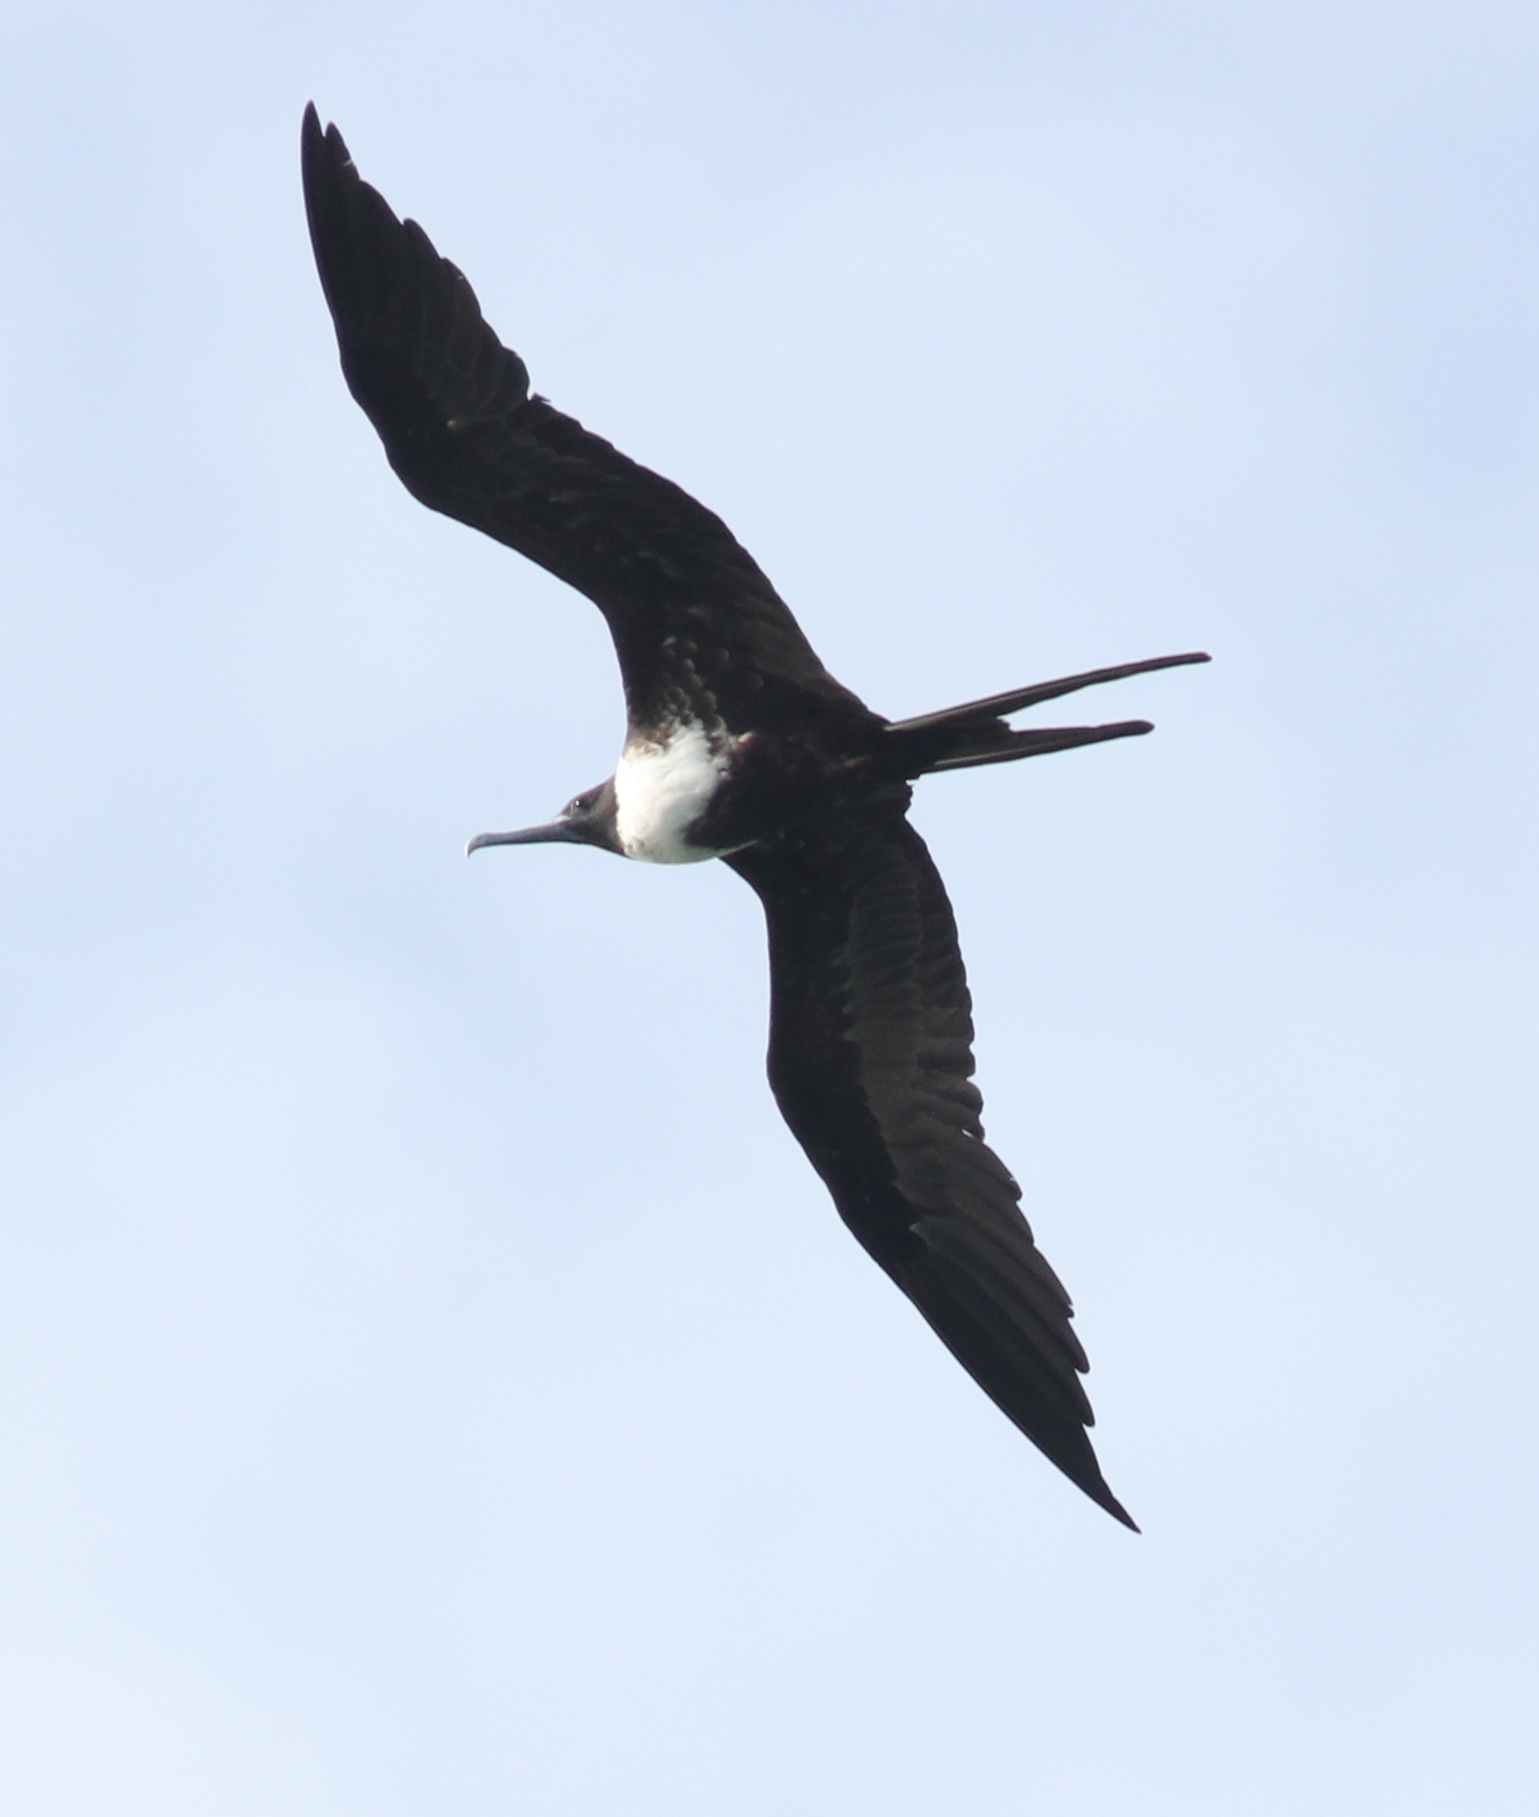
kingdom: Animalia
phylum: Chordata
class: Aves
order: Suliformes
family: Fregatidae
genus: Fregata
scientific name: Fregata magnificens
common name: Magnificent frigatebird
